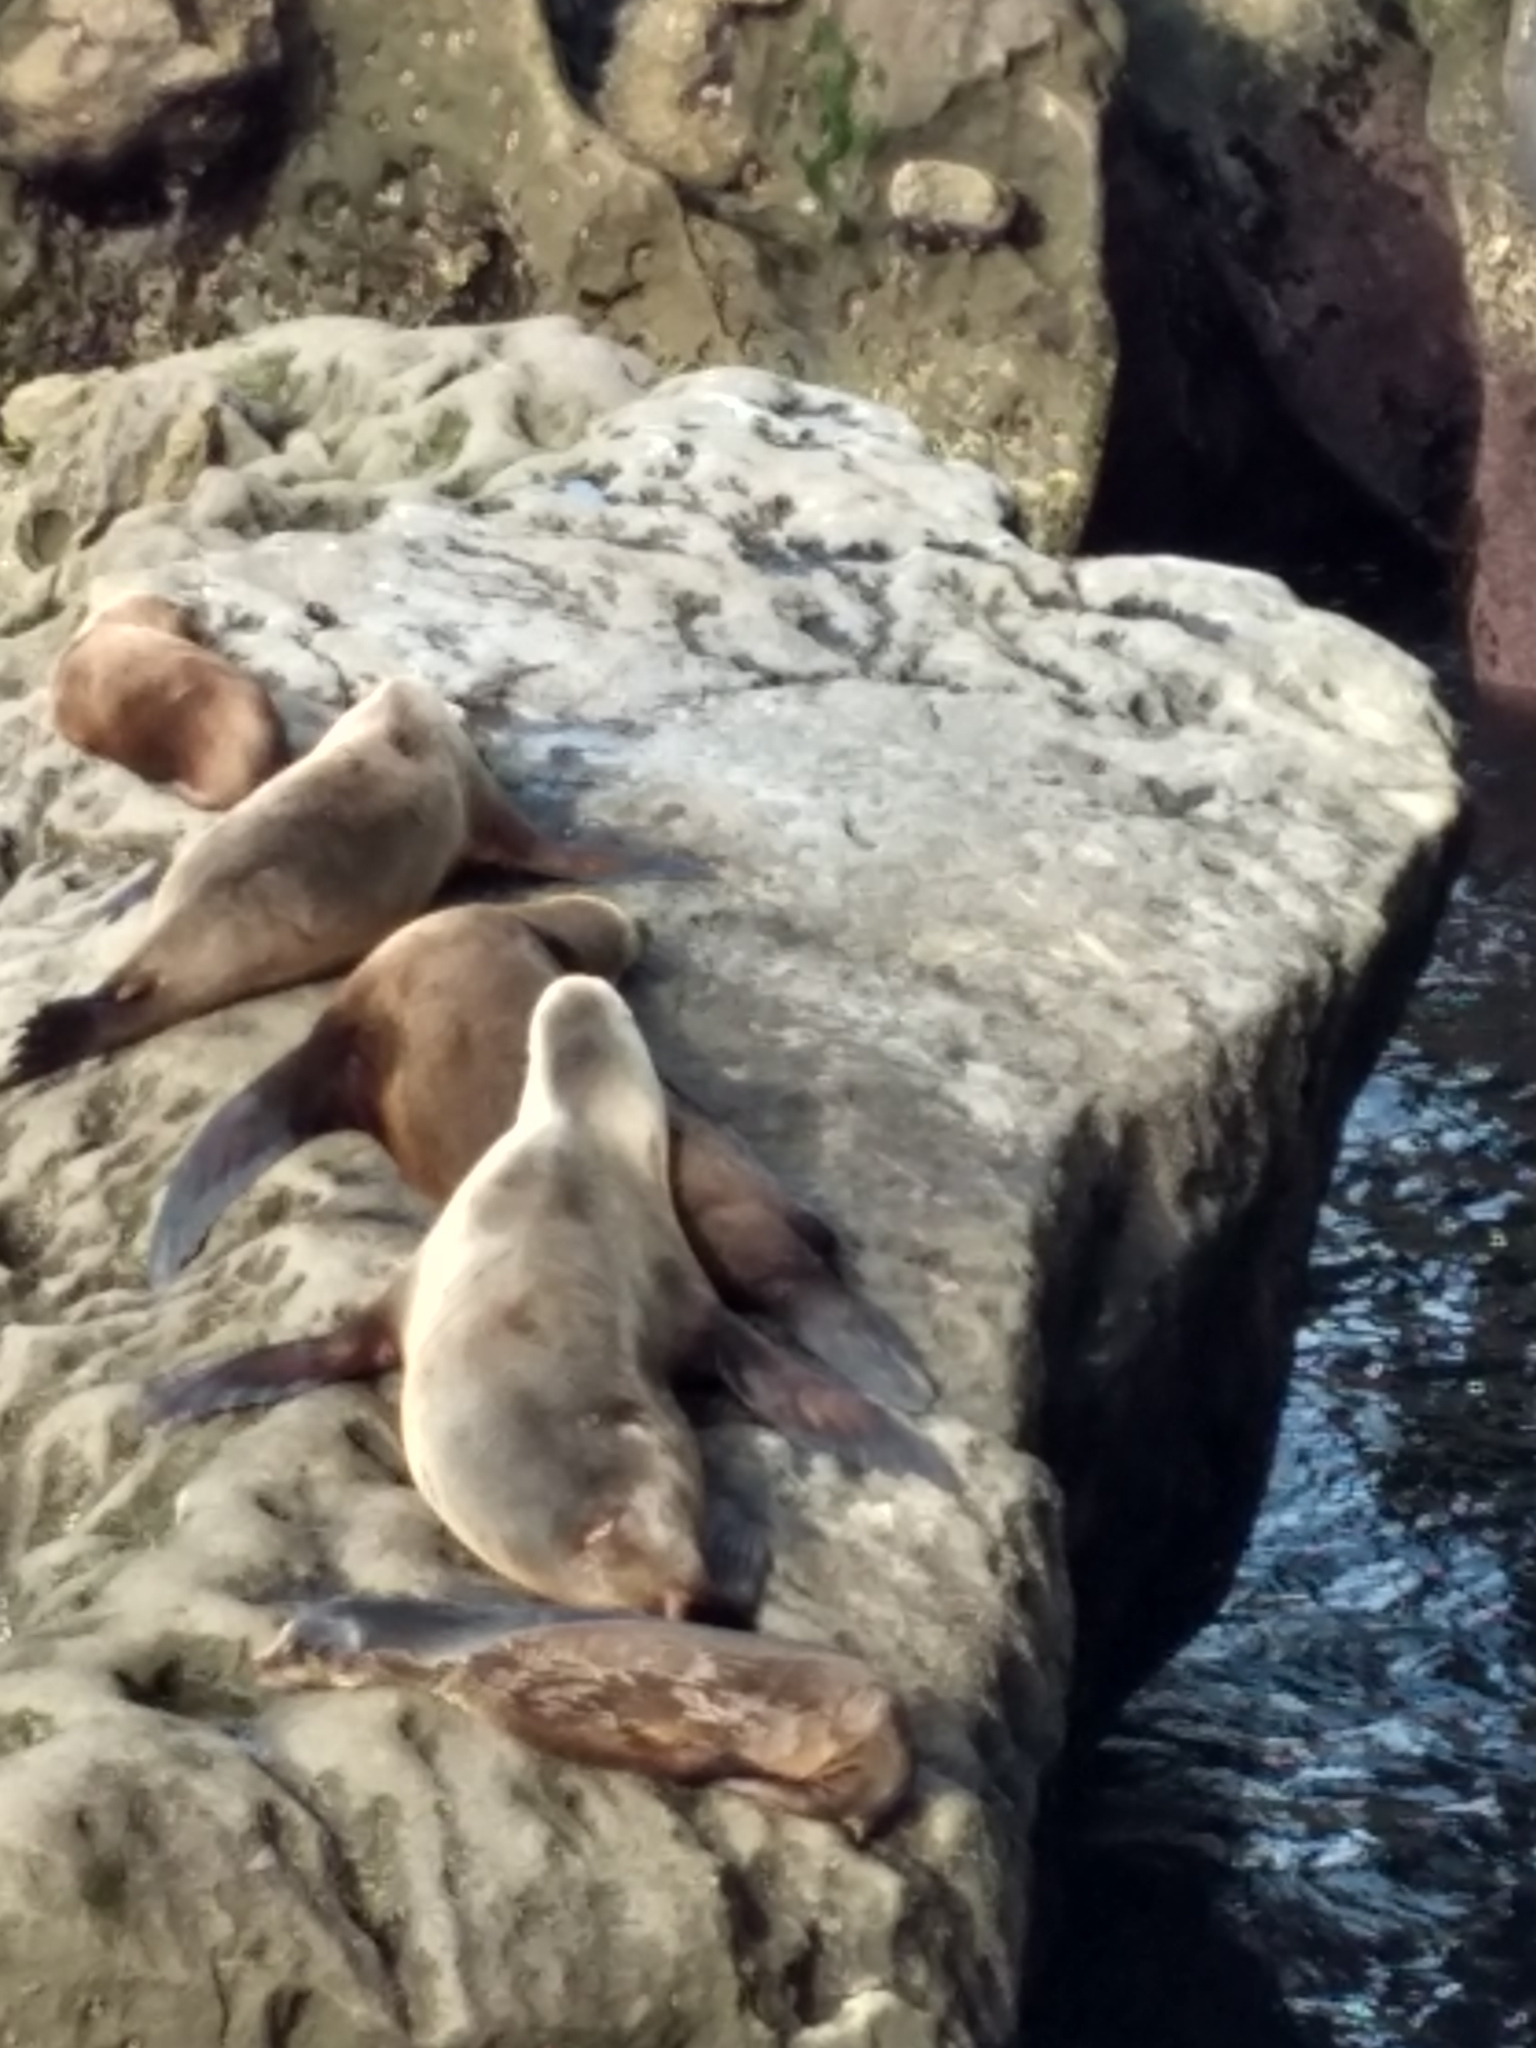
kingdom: Animalia
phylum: Chordata
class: Mammalia
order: Carnivora
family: Otariidae
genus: Zalophus
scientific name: Zalophus californianus
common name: California sea lion
